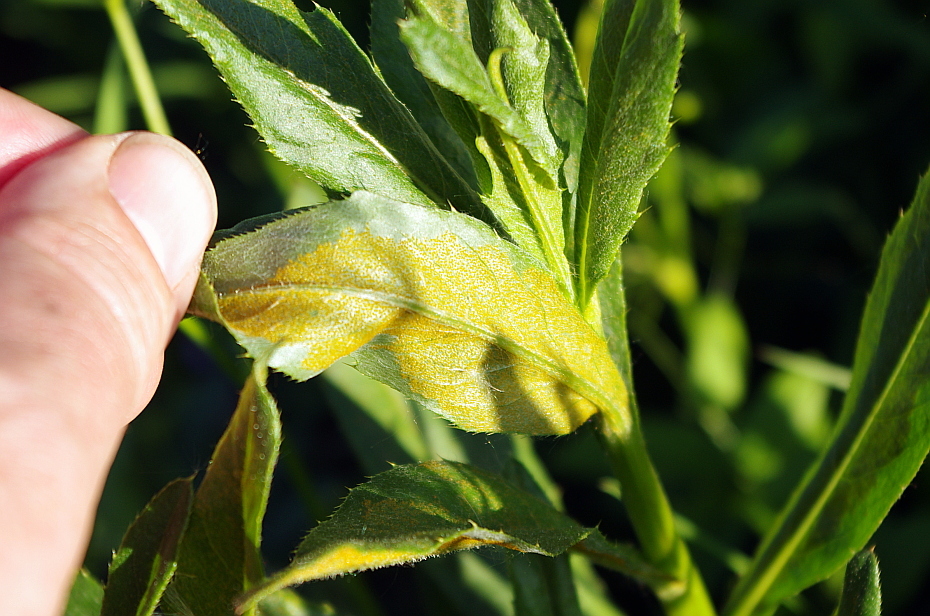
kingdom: Plantae
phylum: Tracheophyta
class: Magnoliopsida
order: Asterales
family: Asteraceae
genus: Cirsium
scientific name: Cirsium arvense
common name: Creeping thistle
